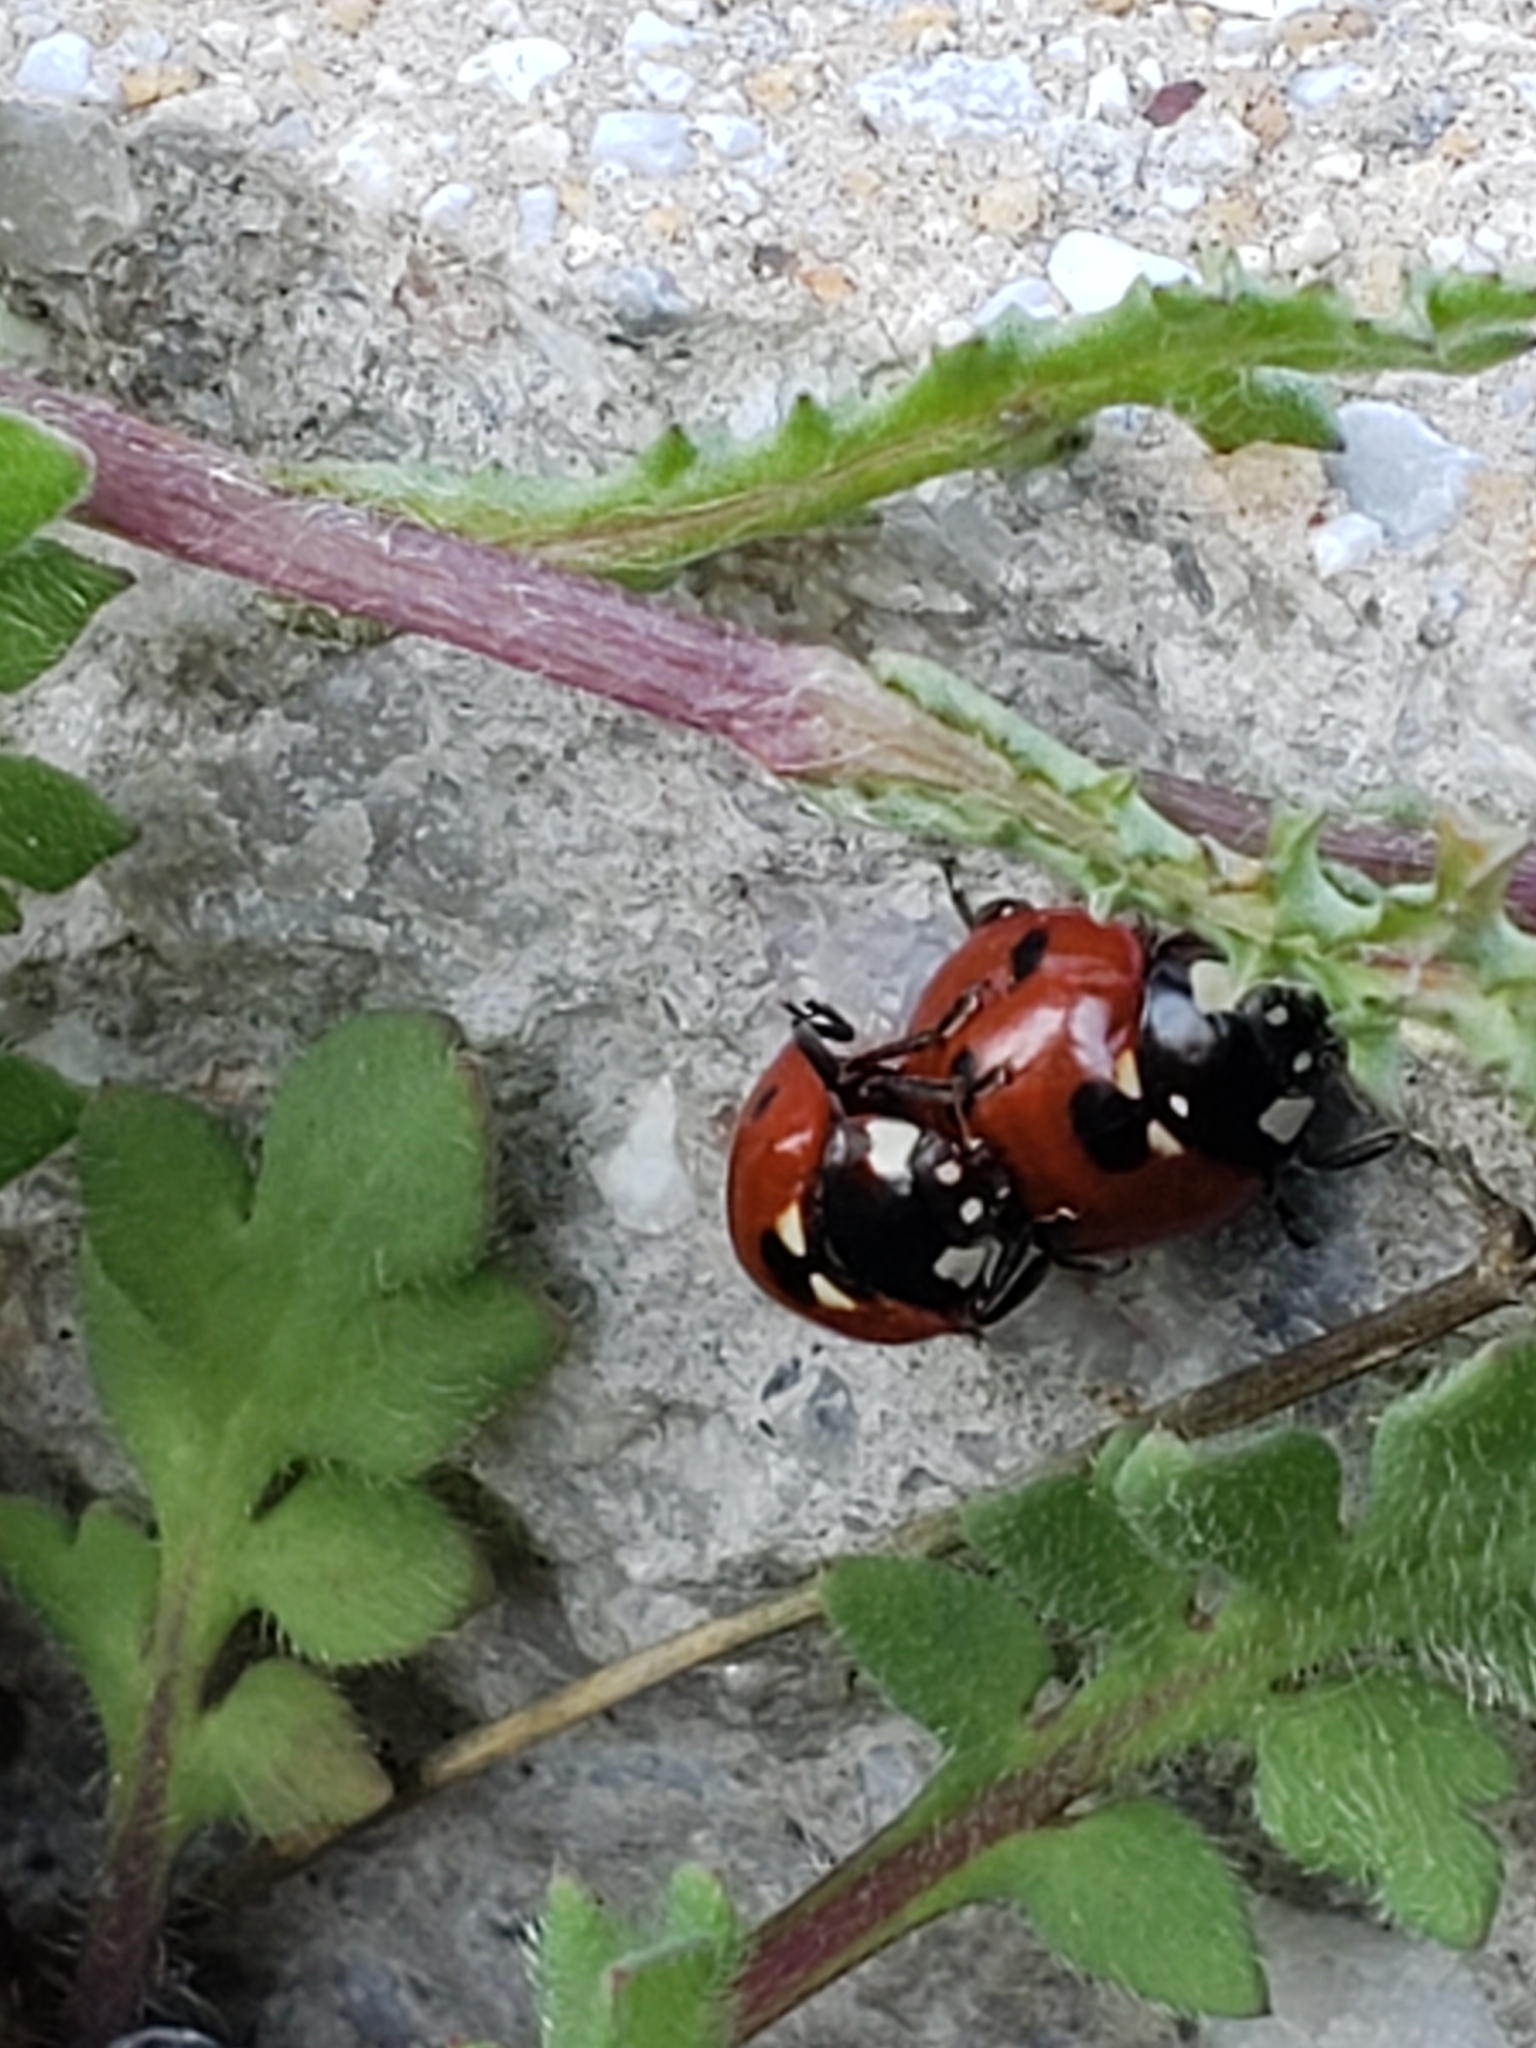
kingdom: Animalia
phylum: Arthropoda
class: Insecta
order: Coleoptera
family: Coccinellidae
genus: Coccinella
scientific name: Coccinella septempunctata
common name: Sevenspotted lady beetle
